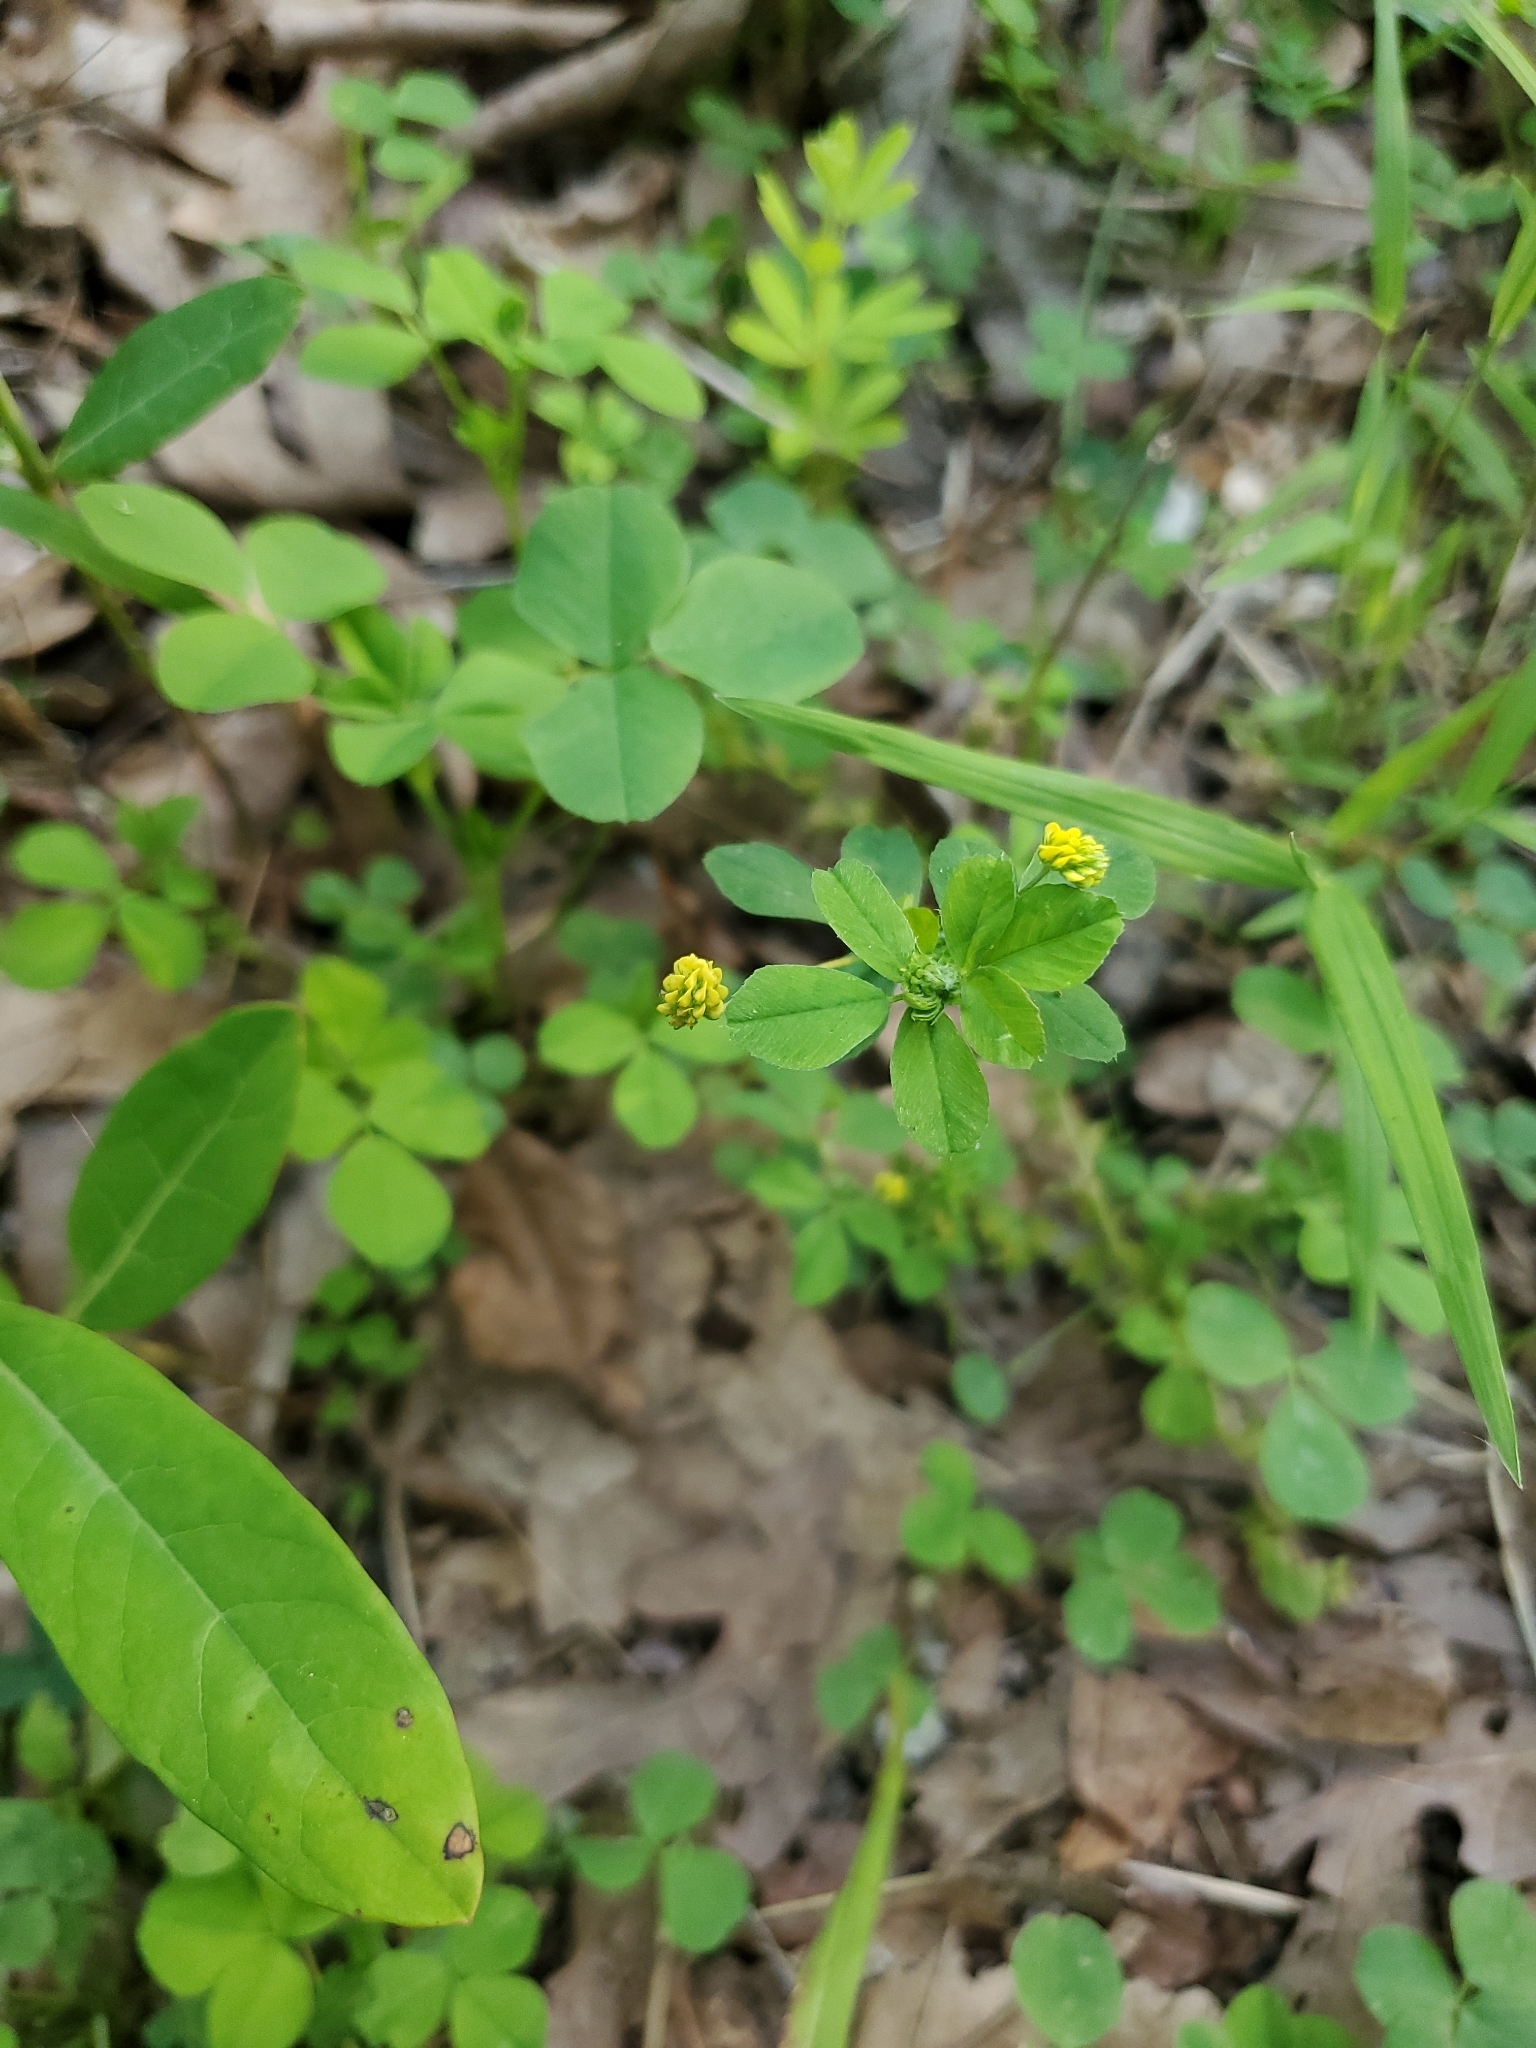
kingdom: Plantae
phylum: Tracheophyta
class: Magnoliopsida
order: Fabales
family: Fabaceae
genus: Medicago
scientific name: Medicago lupulina
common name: Black medick
